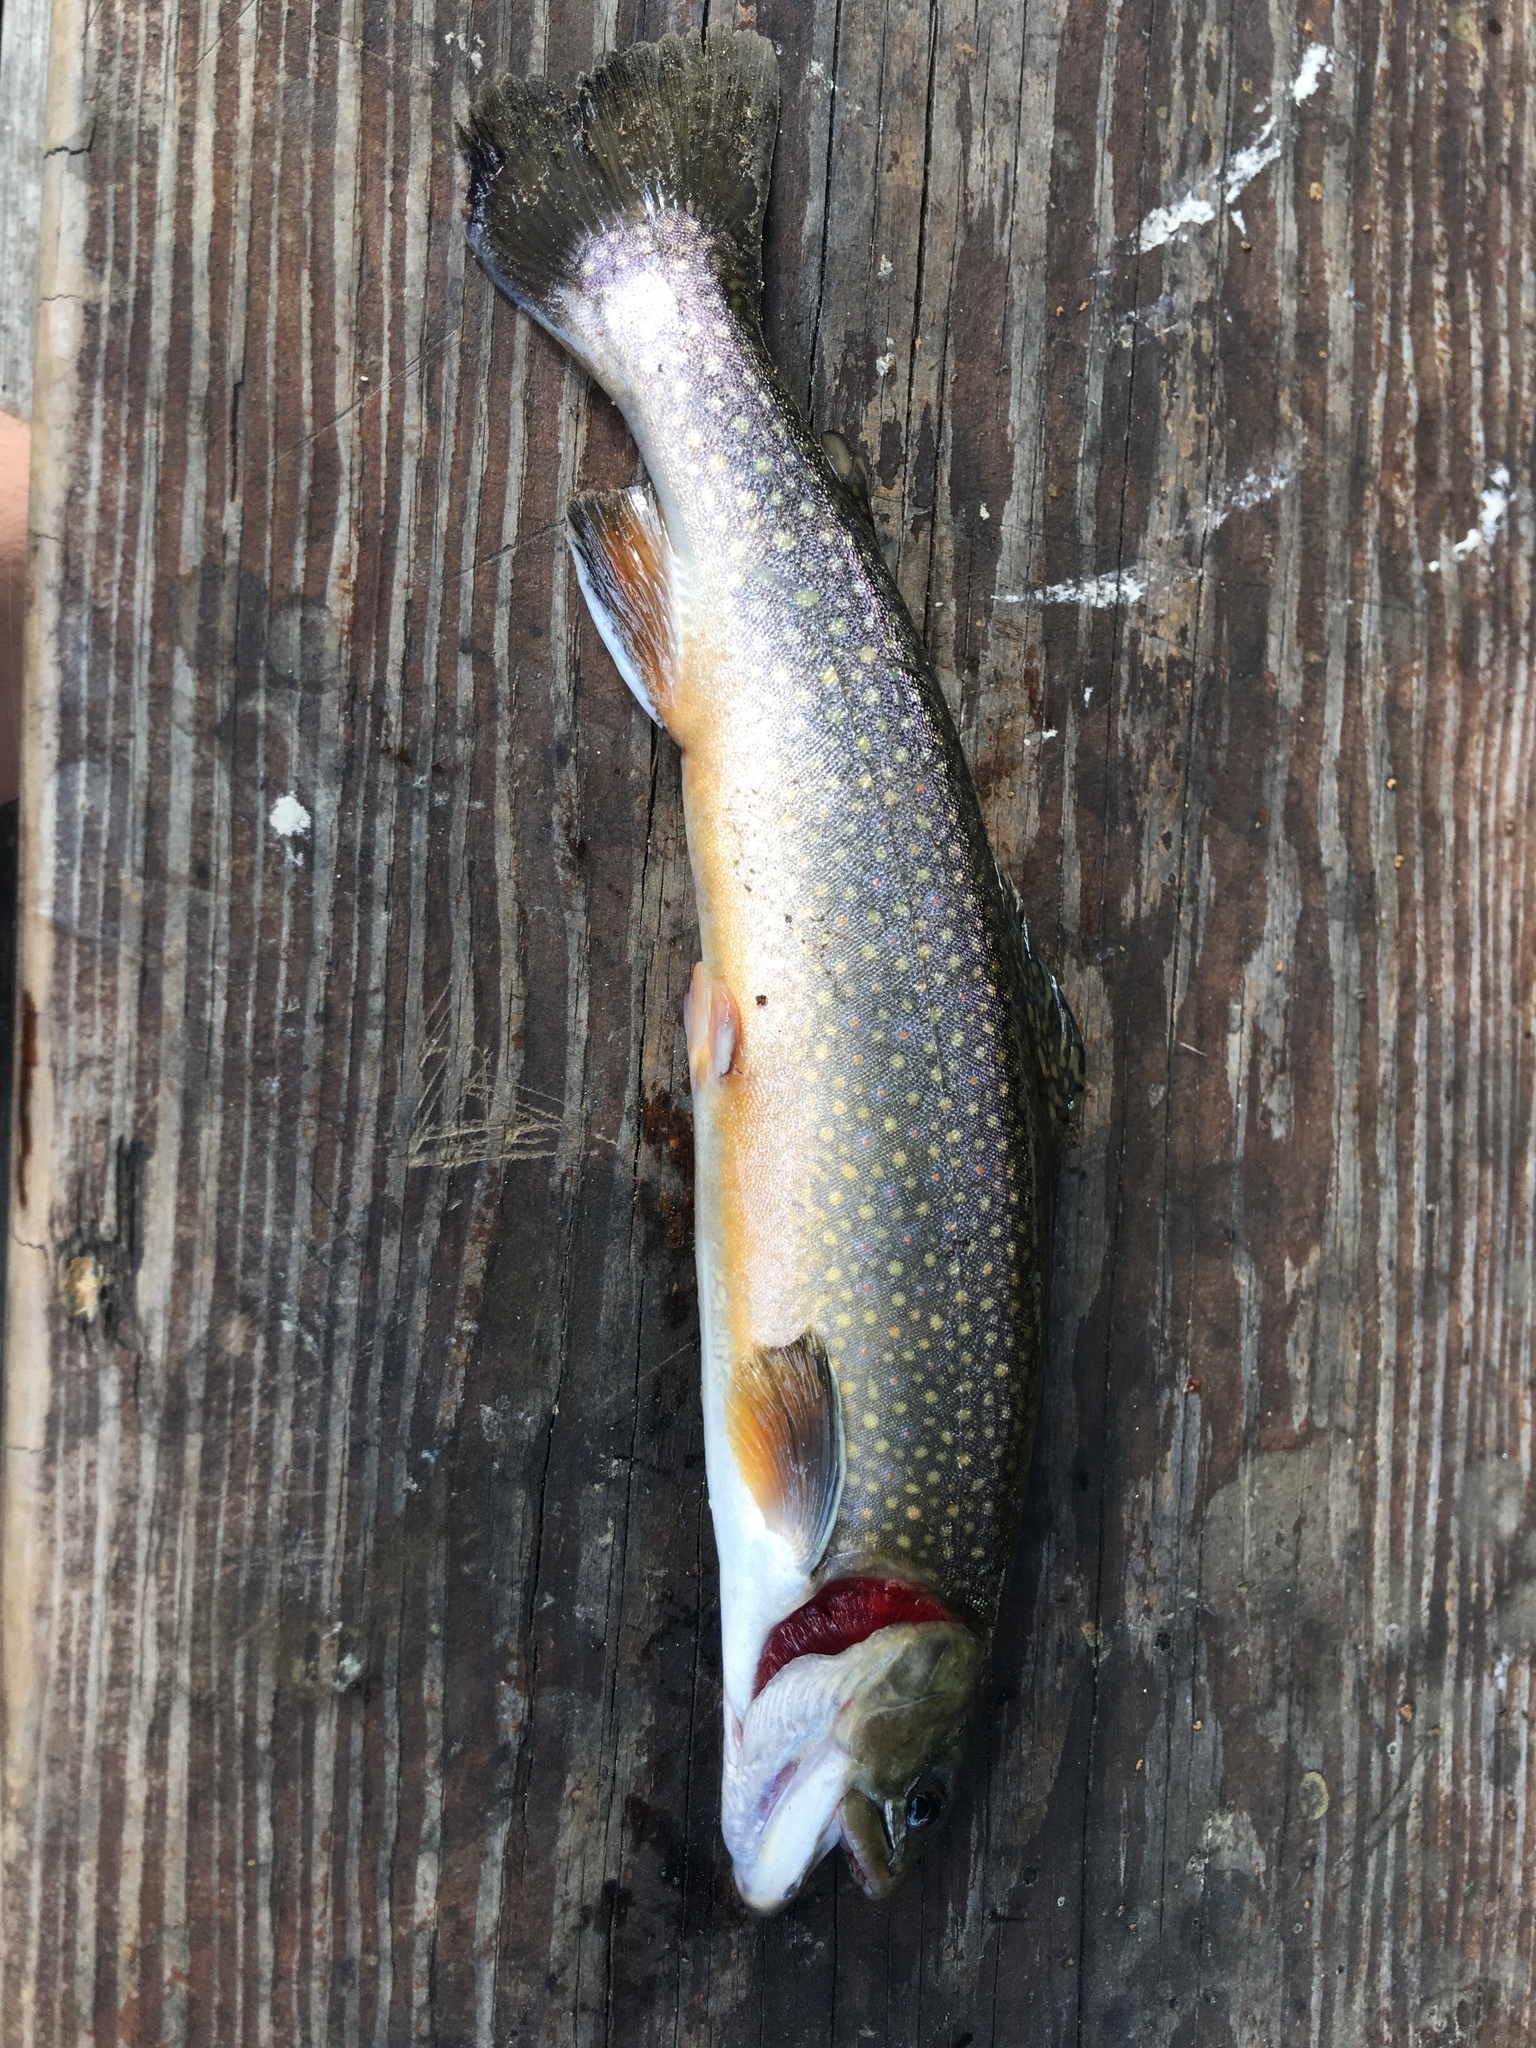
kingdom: Animalia
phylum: Chordata
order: Salmoniformes
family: Salmonidae
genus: Salvelinus
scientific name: Salvelinus fontinalis
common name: Brook trout
